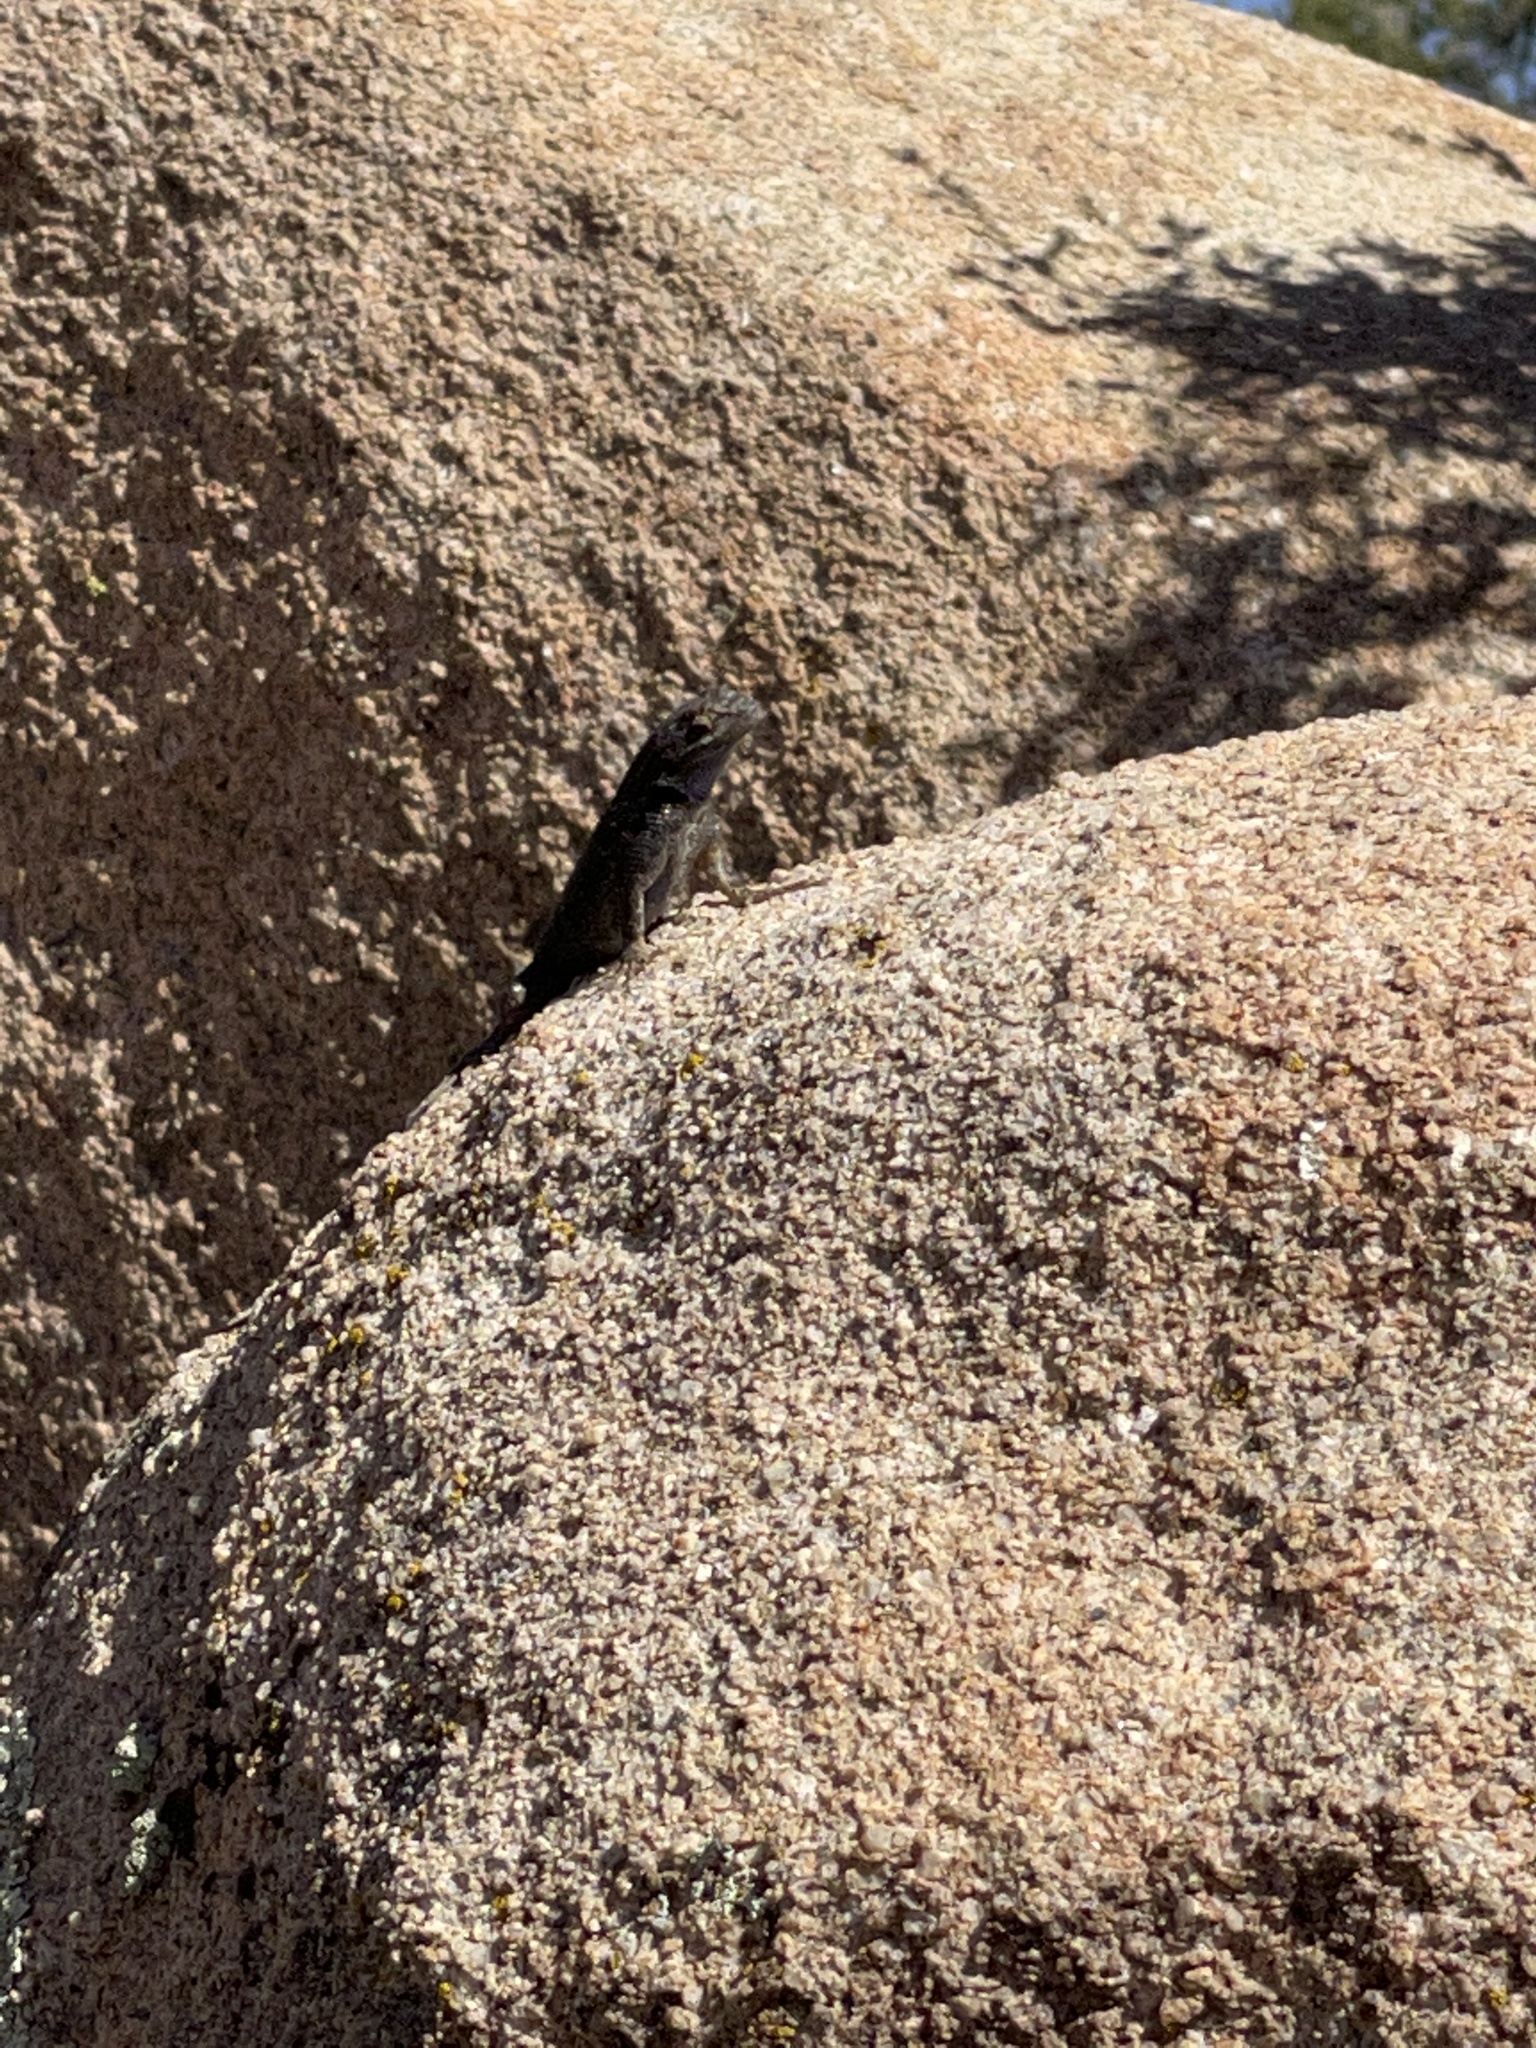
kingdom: Animalia
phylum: Chordata
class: Squamata
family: Phrynosomatidae
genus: Sceloporus
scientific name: Sceloporus occidentalis
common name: Western fence lizard
